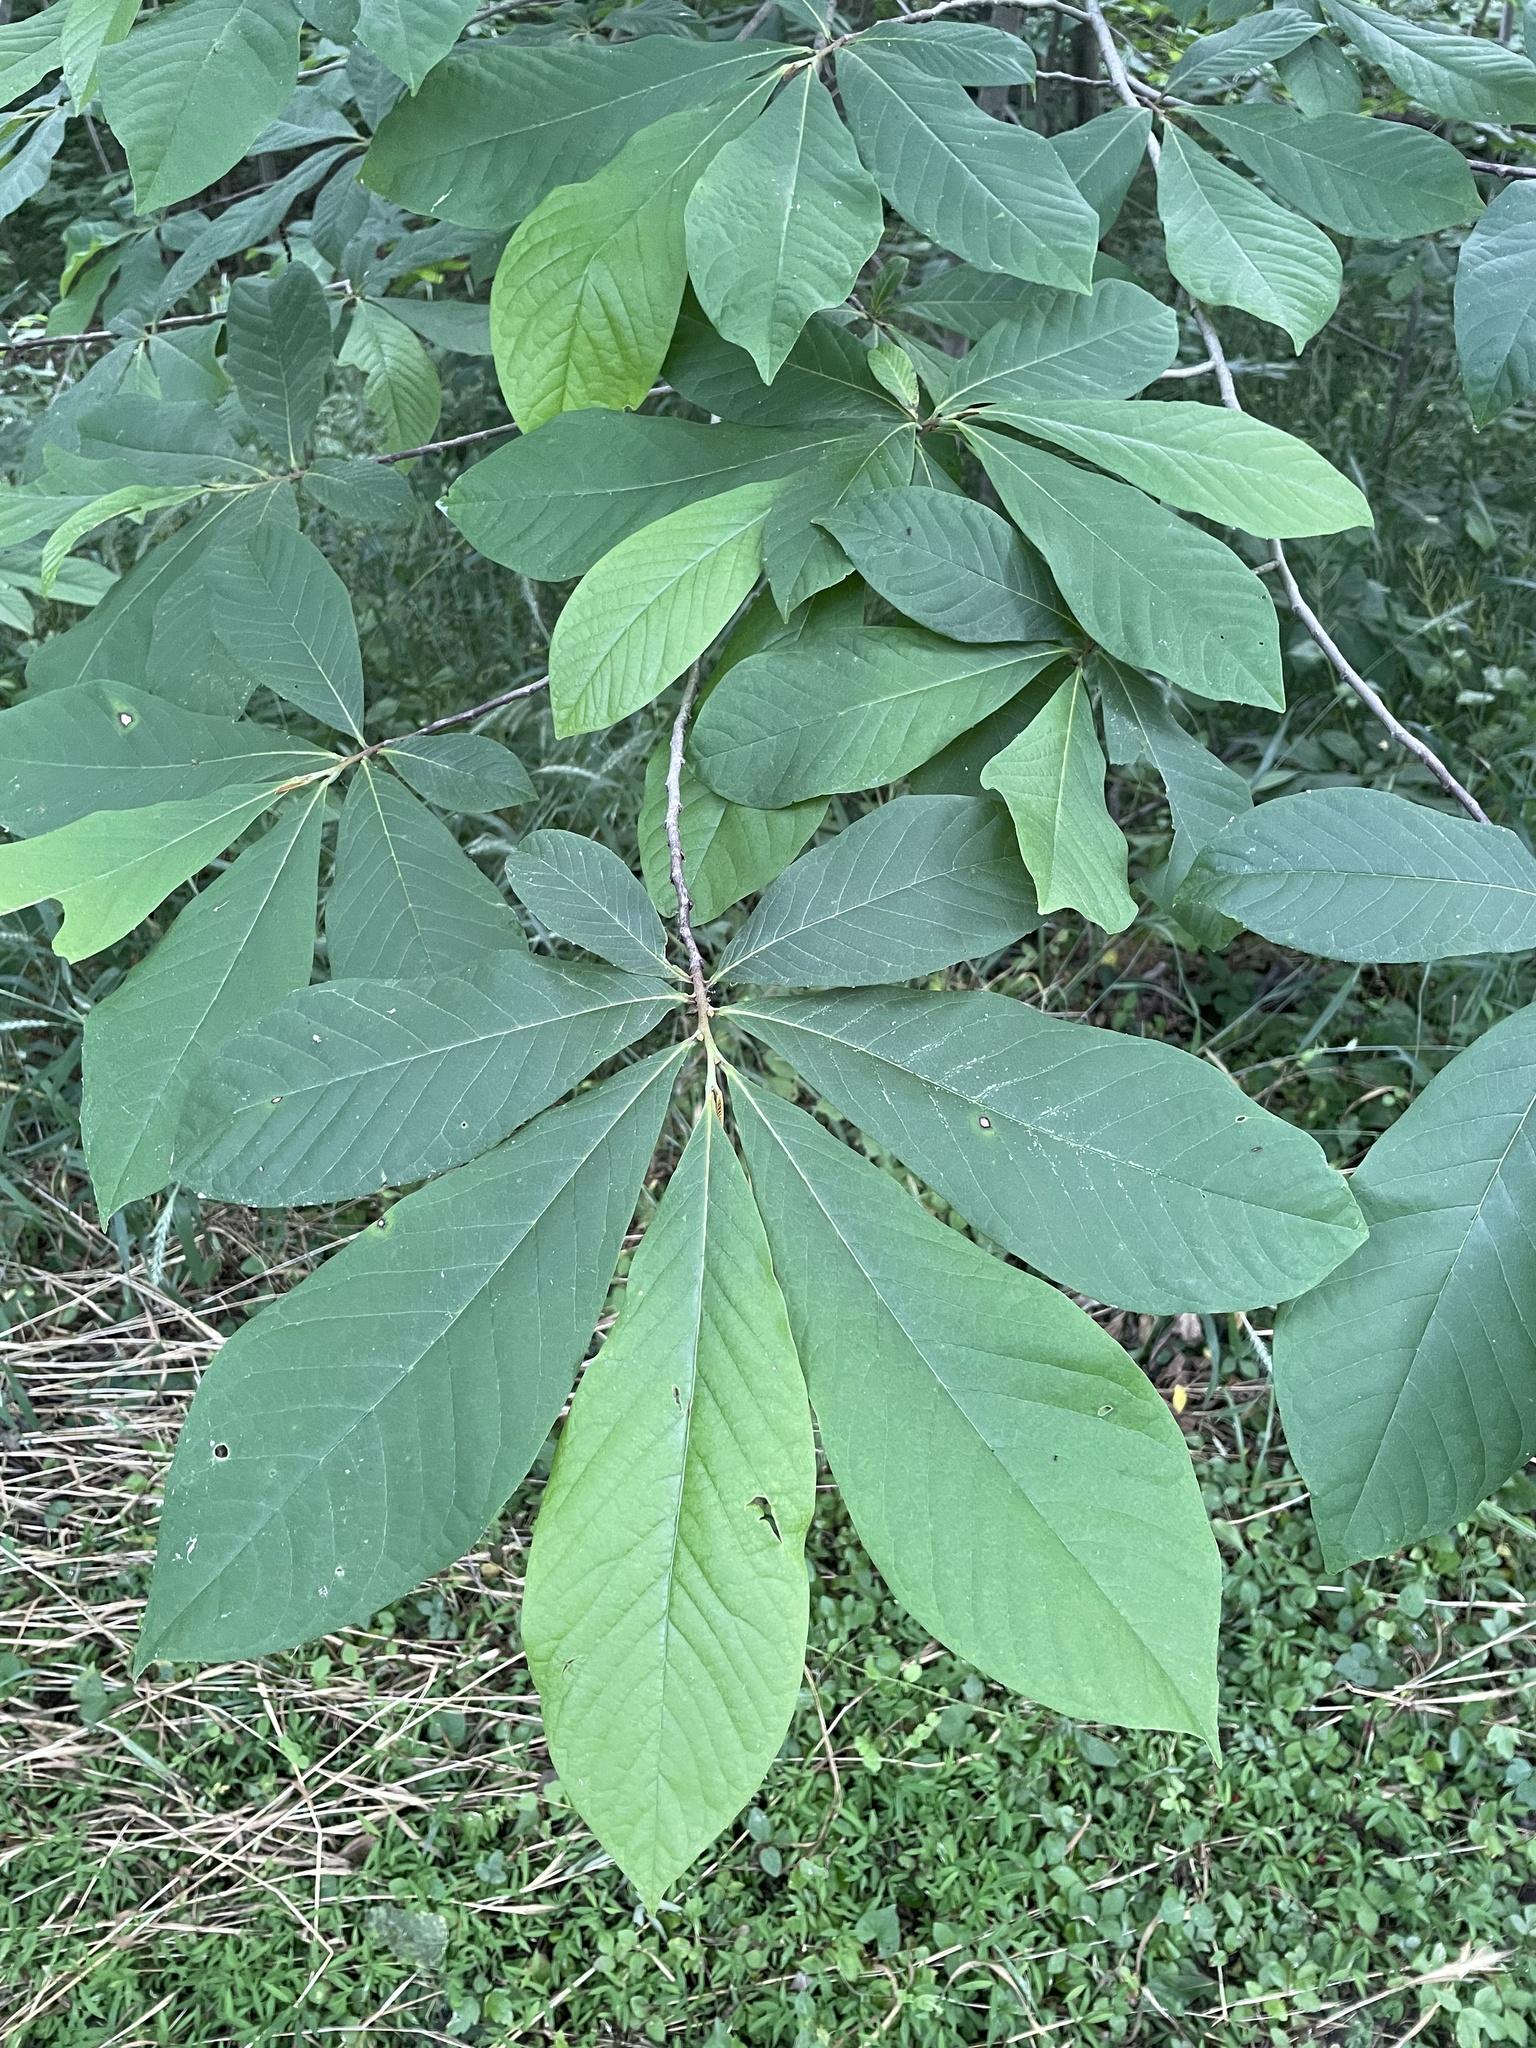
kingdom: Plantae
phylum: Tracheophyta
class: Magnoliopsida
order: Magnoliales
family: Annonaceae
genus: Asimina
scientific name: Asimina triloba
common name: Dog-banana
